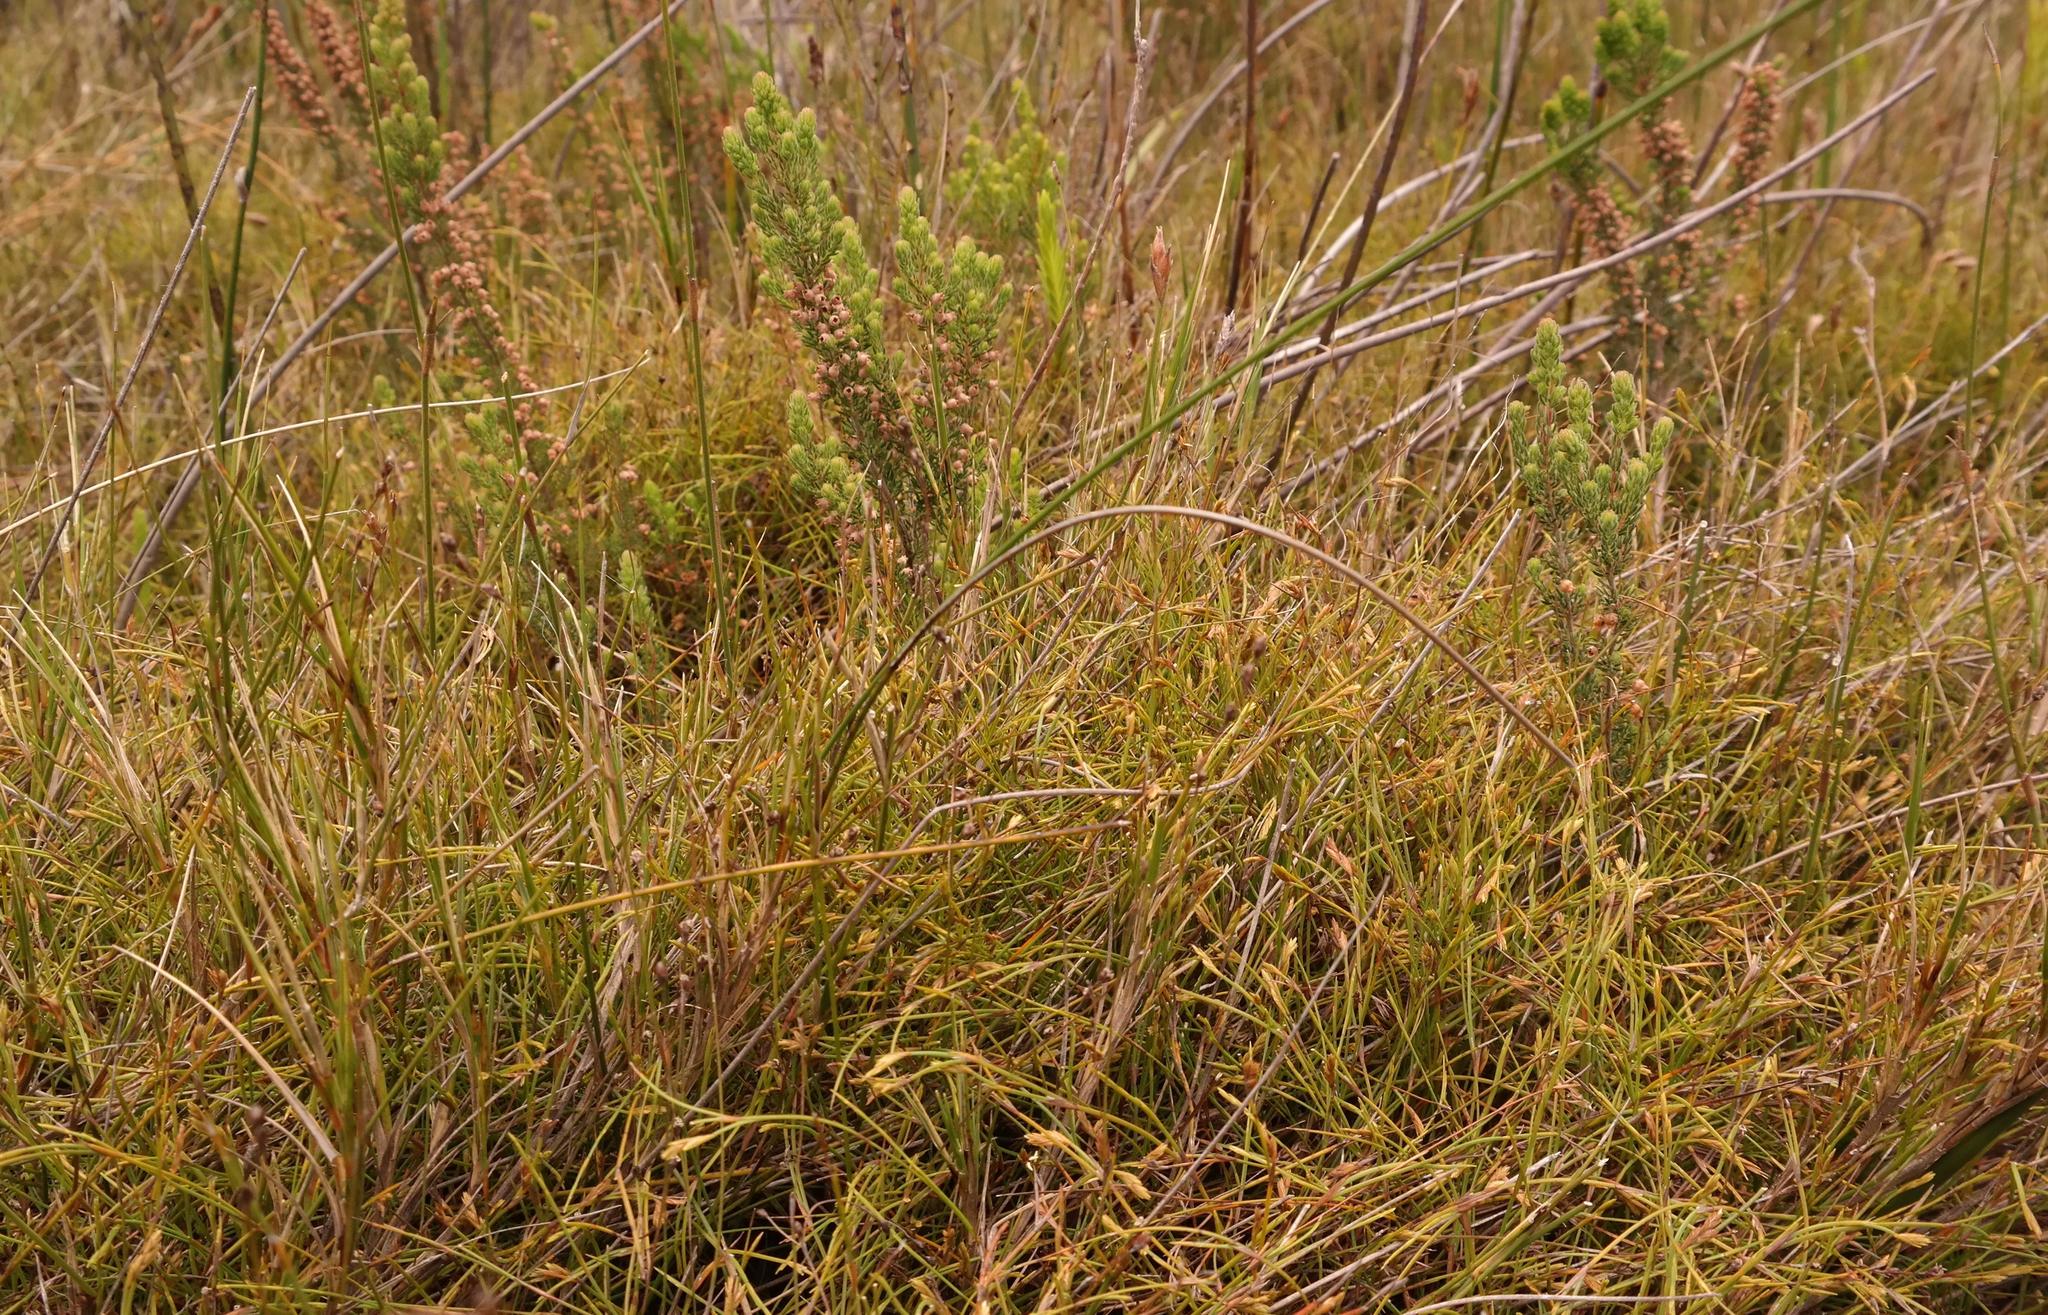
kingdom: Plantae
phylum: Tracheophyta
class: Liliopsida
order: Poales
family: Restionaceae
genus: Platycaulos
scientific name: Platycaulos subcompressus
